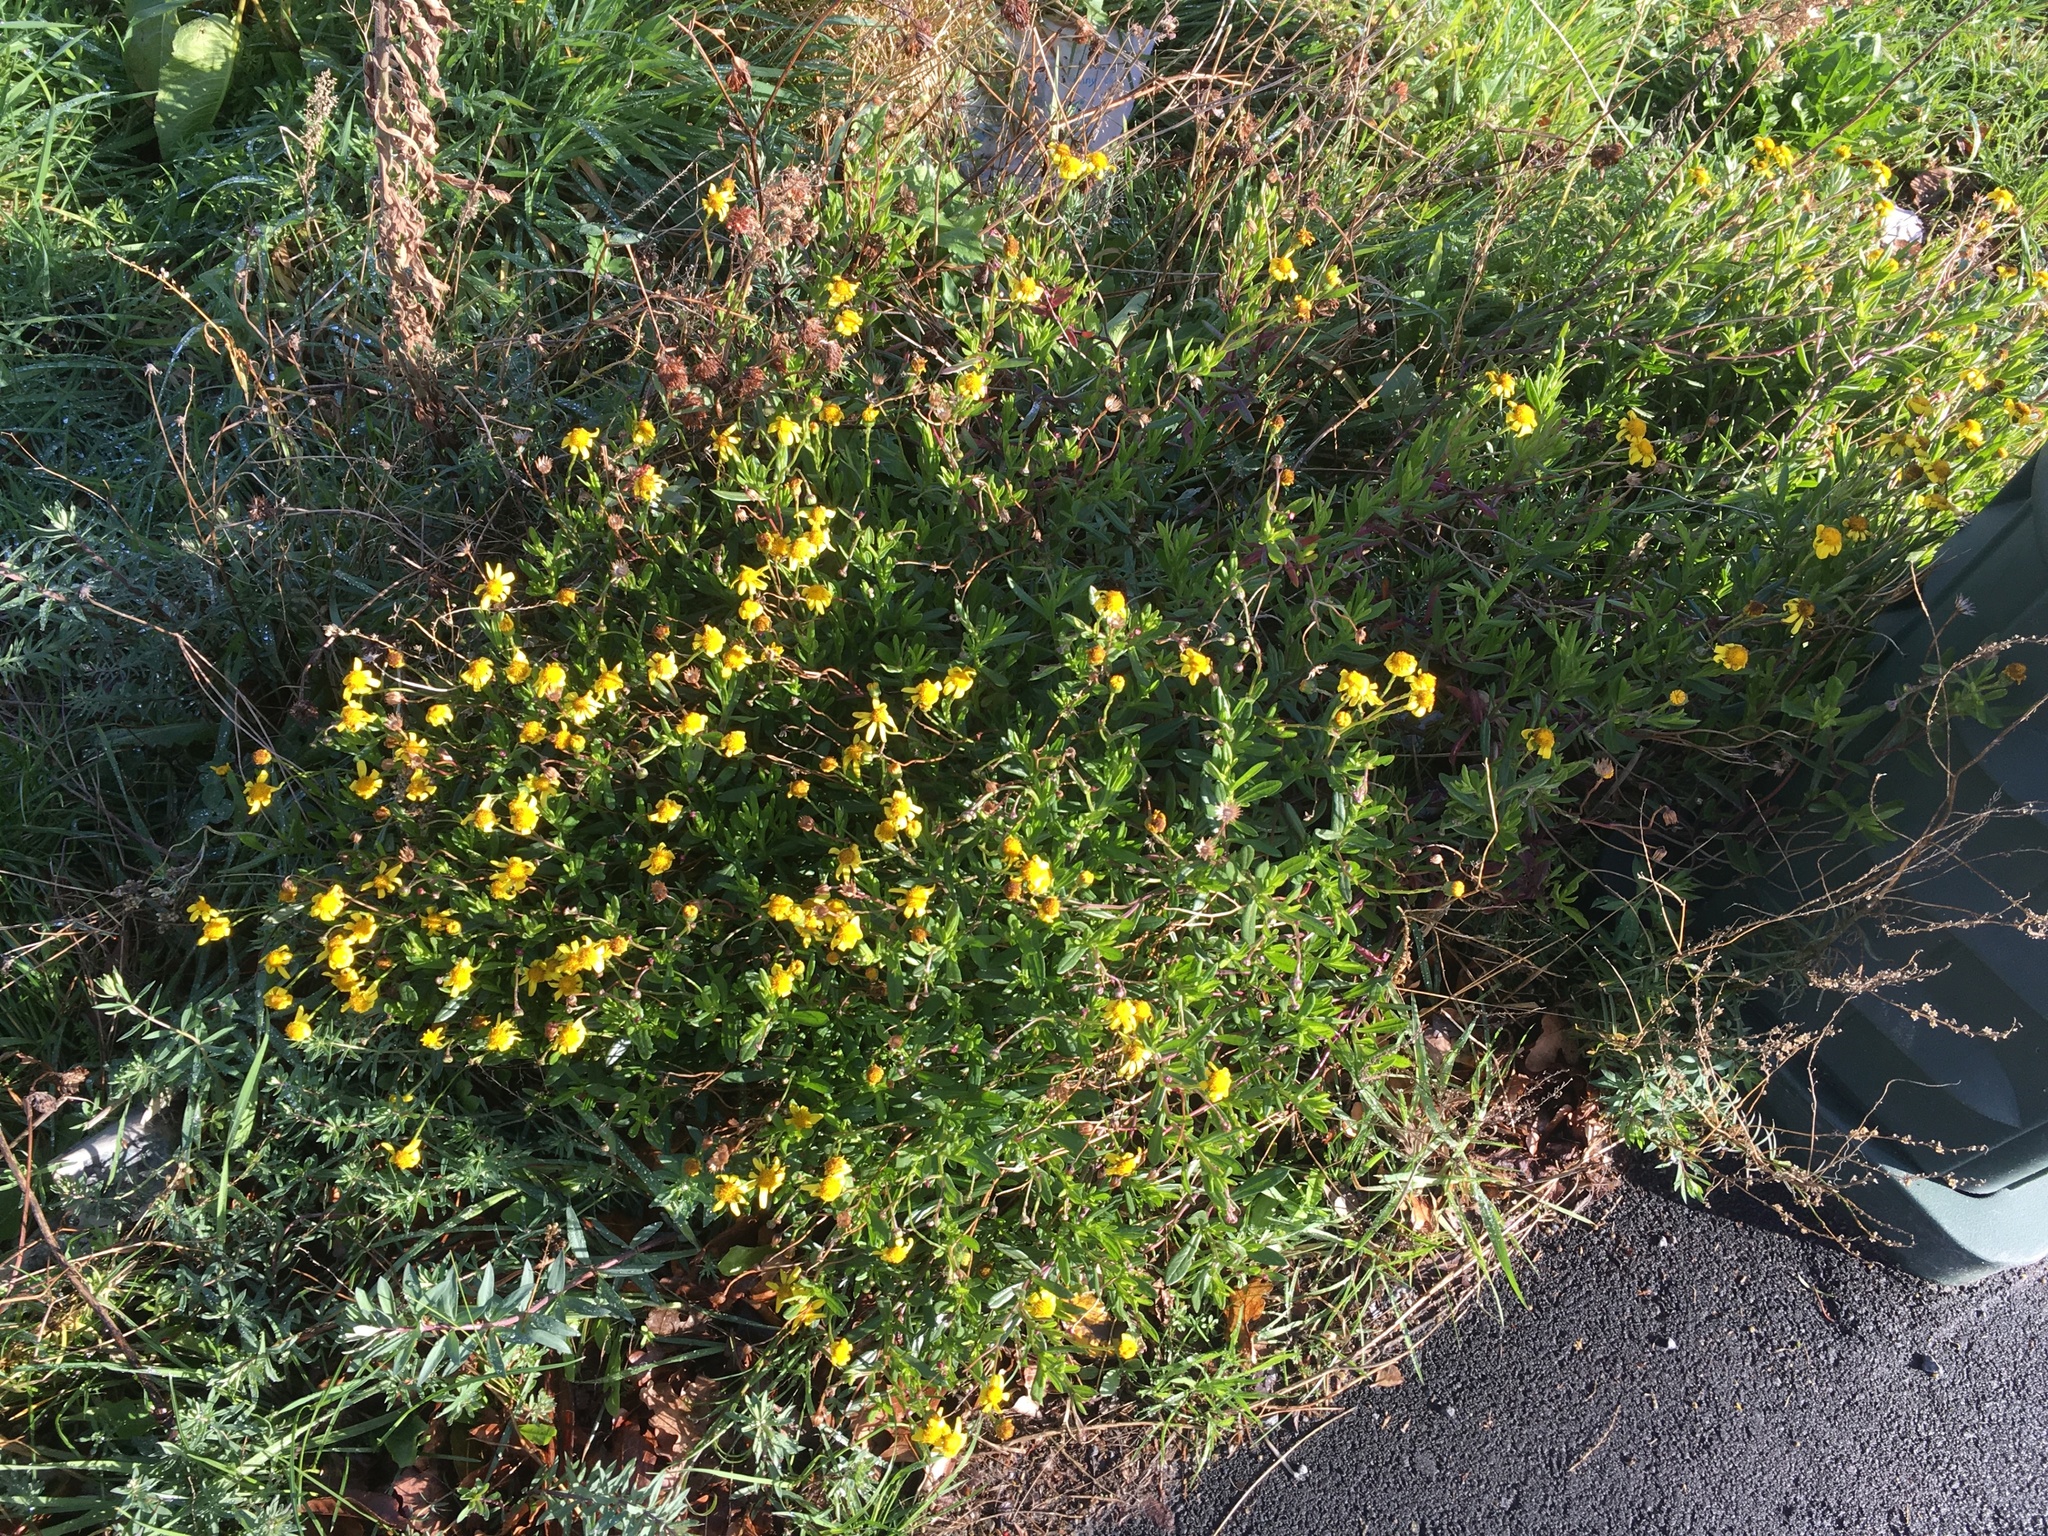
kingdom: Plantae
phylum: Tracheophyta
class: Magnoliopsida
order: Asterales
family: Asteraceae
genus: Senecio
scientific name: Senecio skirrhodon
